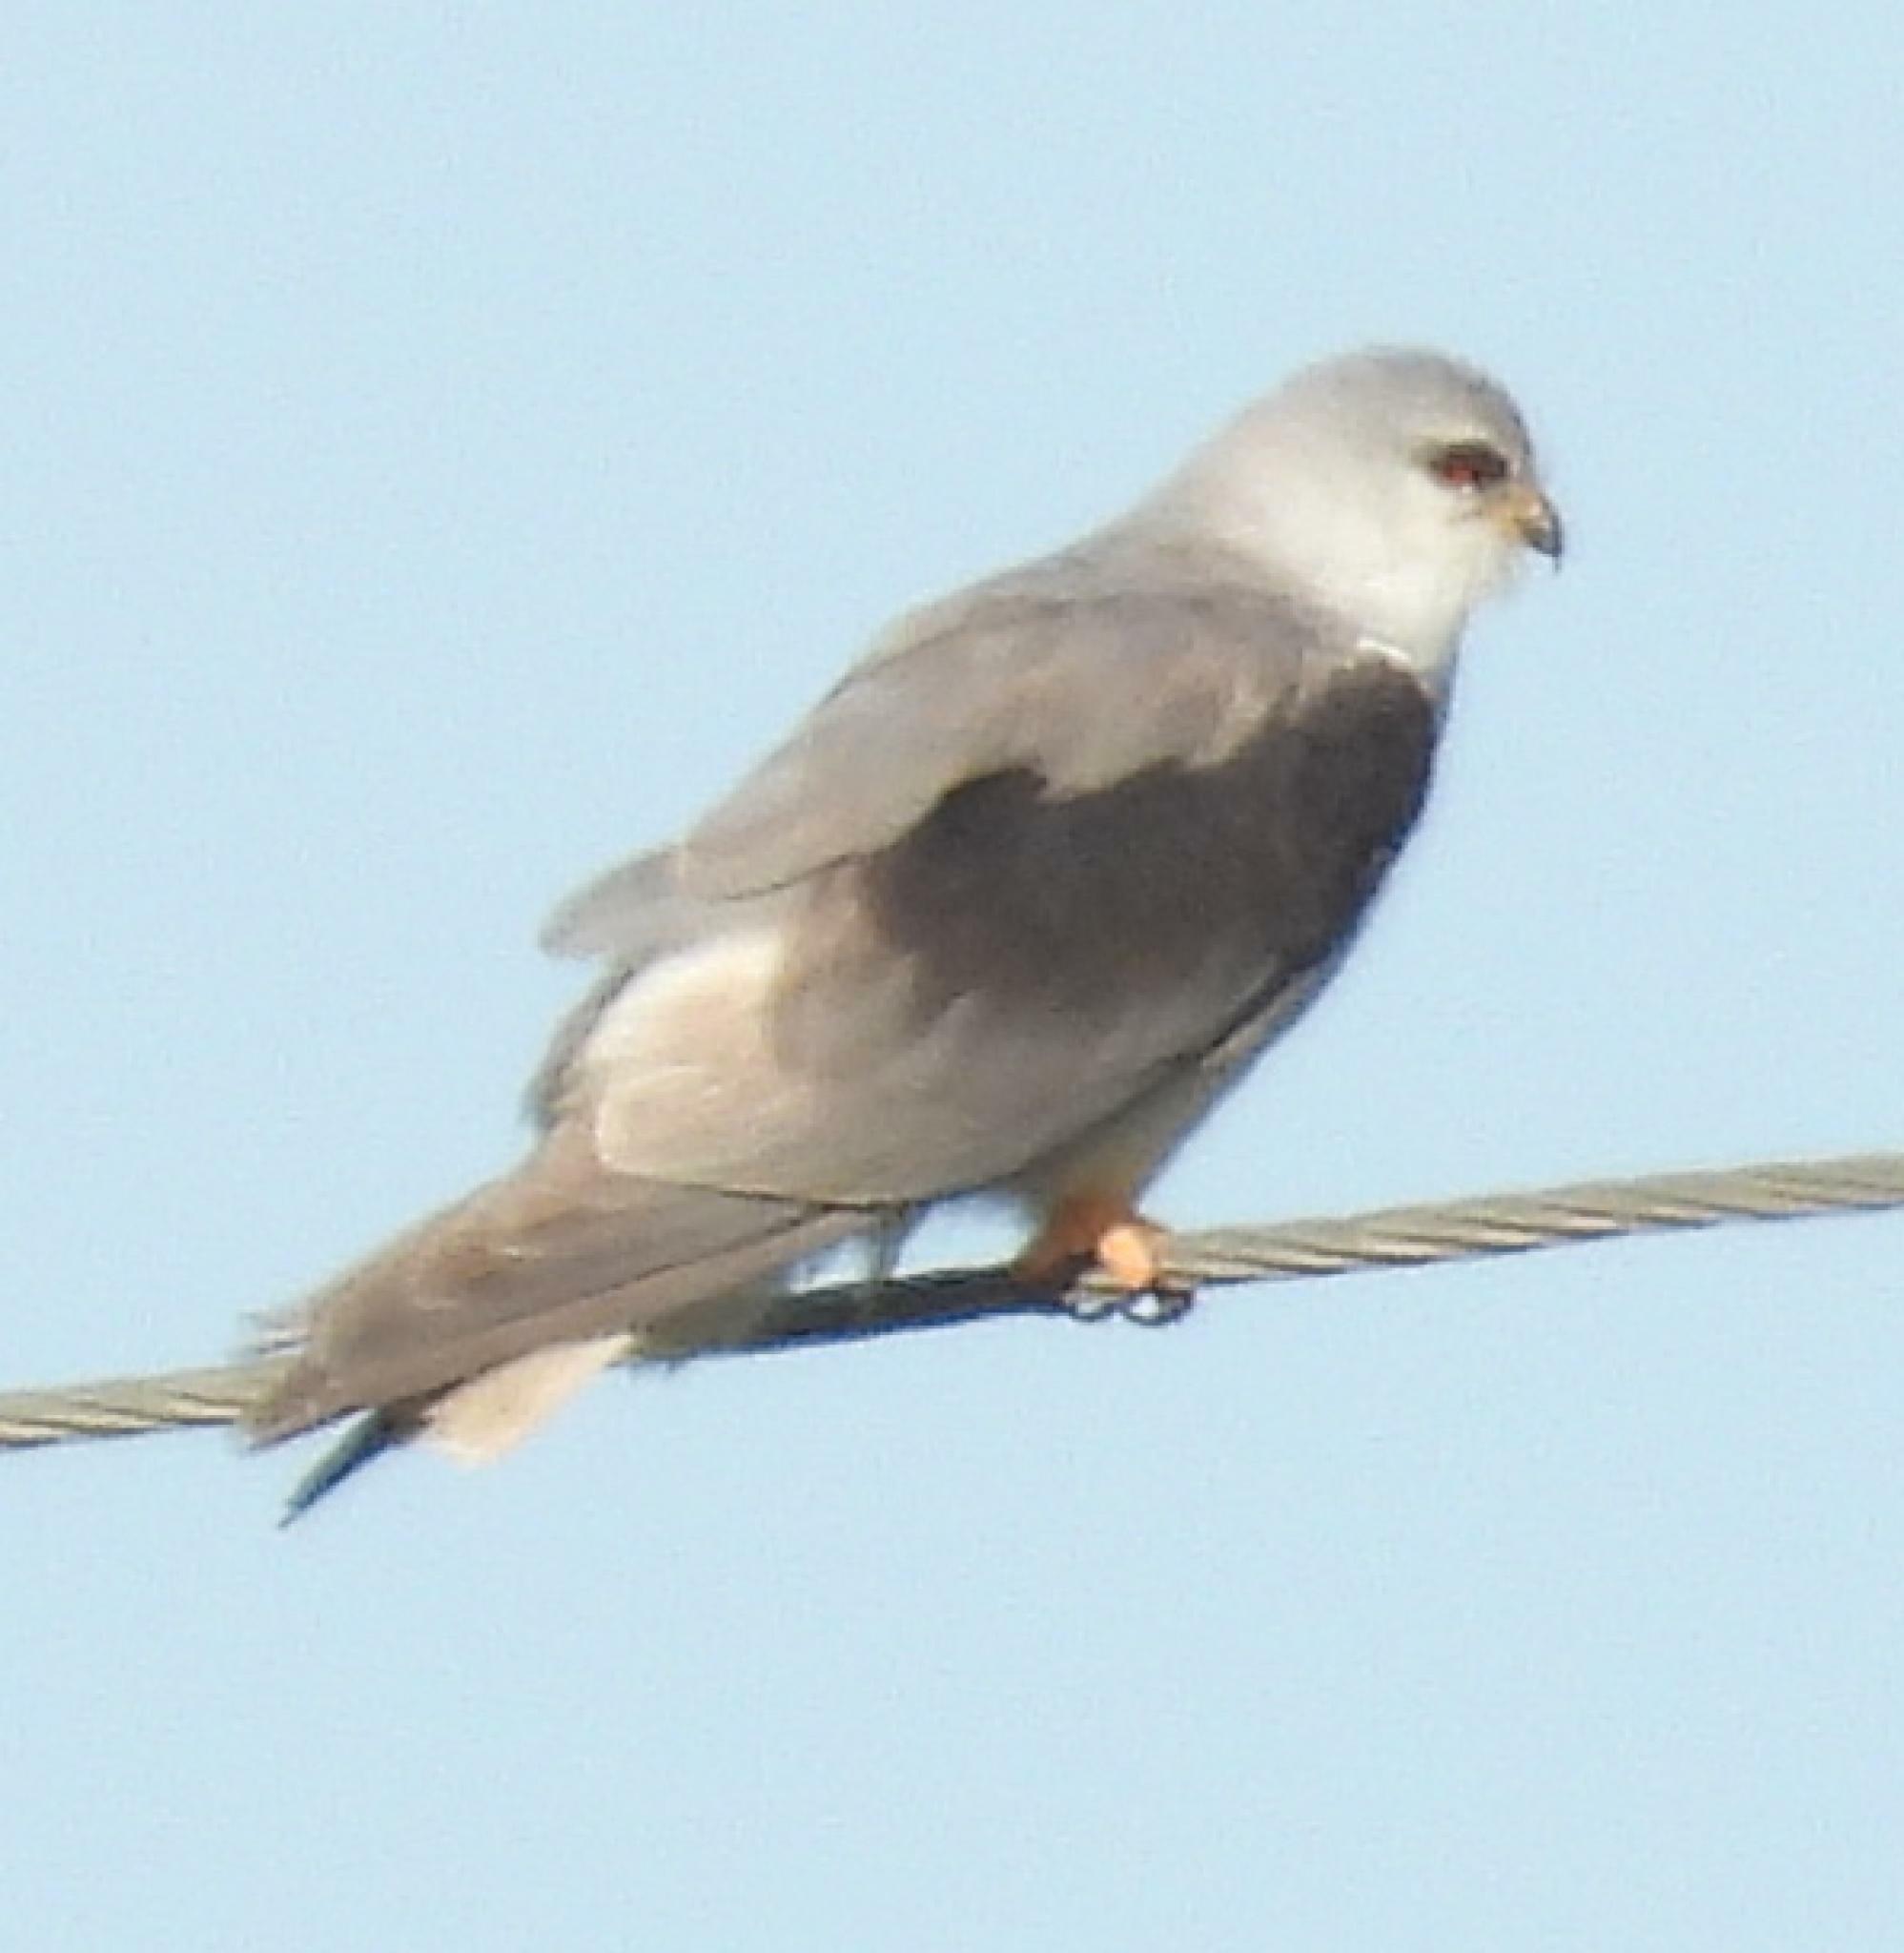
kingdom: Animalia
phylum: Chordata
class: Aves
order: Accipitriformes
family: Accipitridae
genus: Elanus
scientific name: Elanus caeruleus
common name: Black-winged kite
